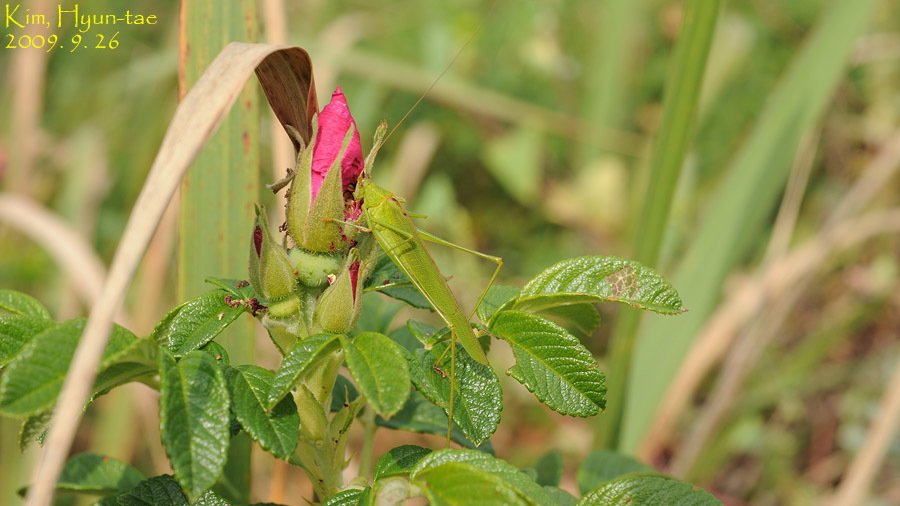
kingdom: Animalia
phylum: Arthropoda
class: Insecta
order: Orthoptera
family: Tettigoniidae
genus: Phaneroptera
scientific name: Phaneroptera falcata
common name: Sickle-bearing bush-cricket
